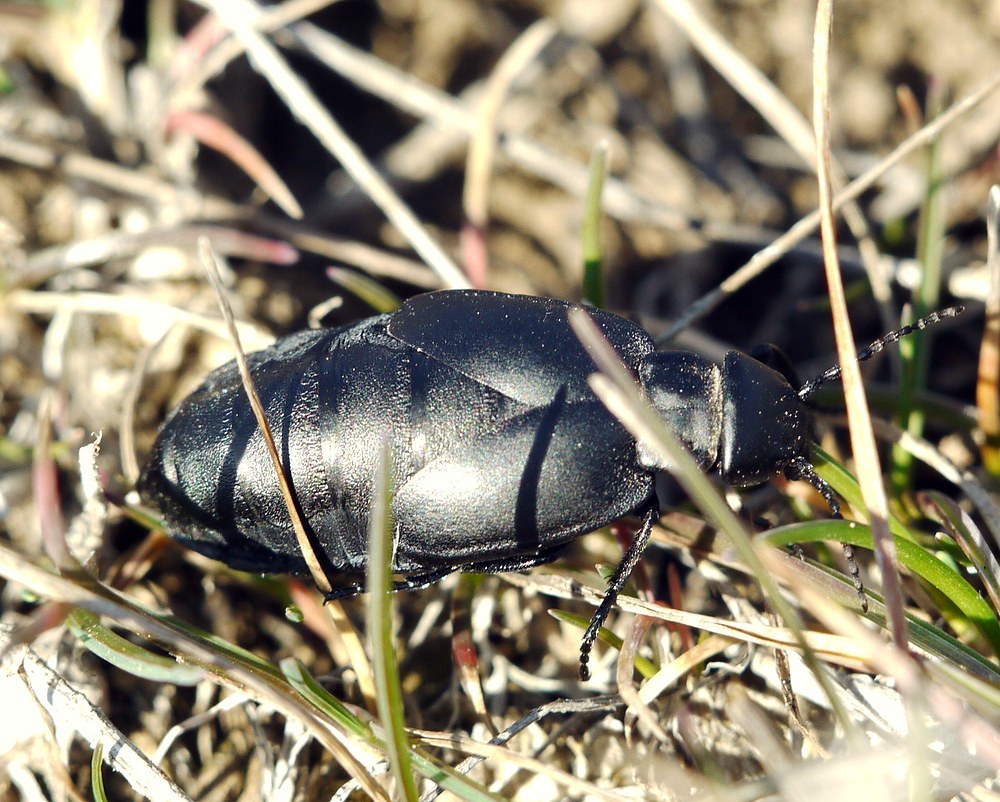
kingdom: Animalia
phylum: Arthropoda
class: Insecta
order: Coleoptera
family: Meloidae
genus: Meloe
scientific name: Meloe uralensis
